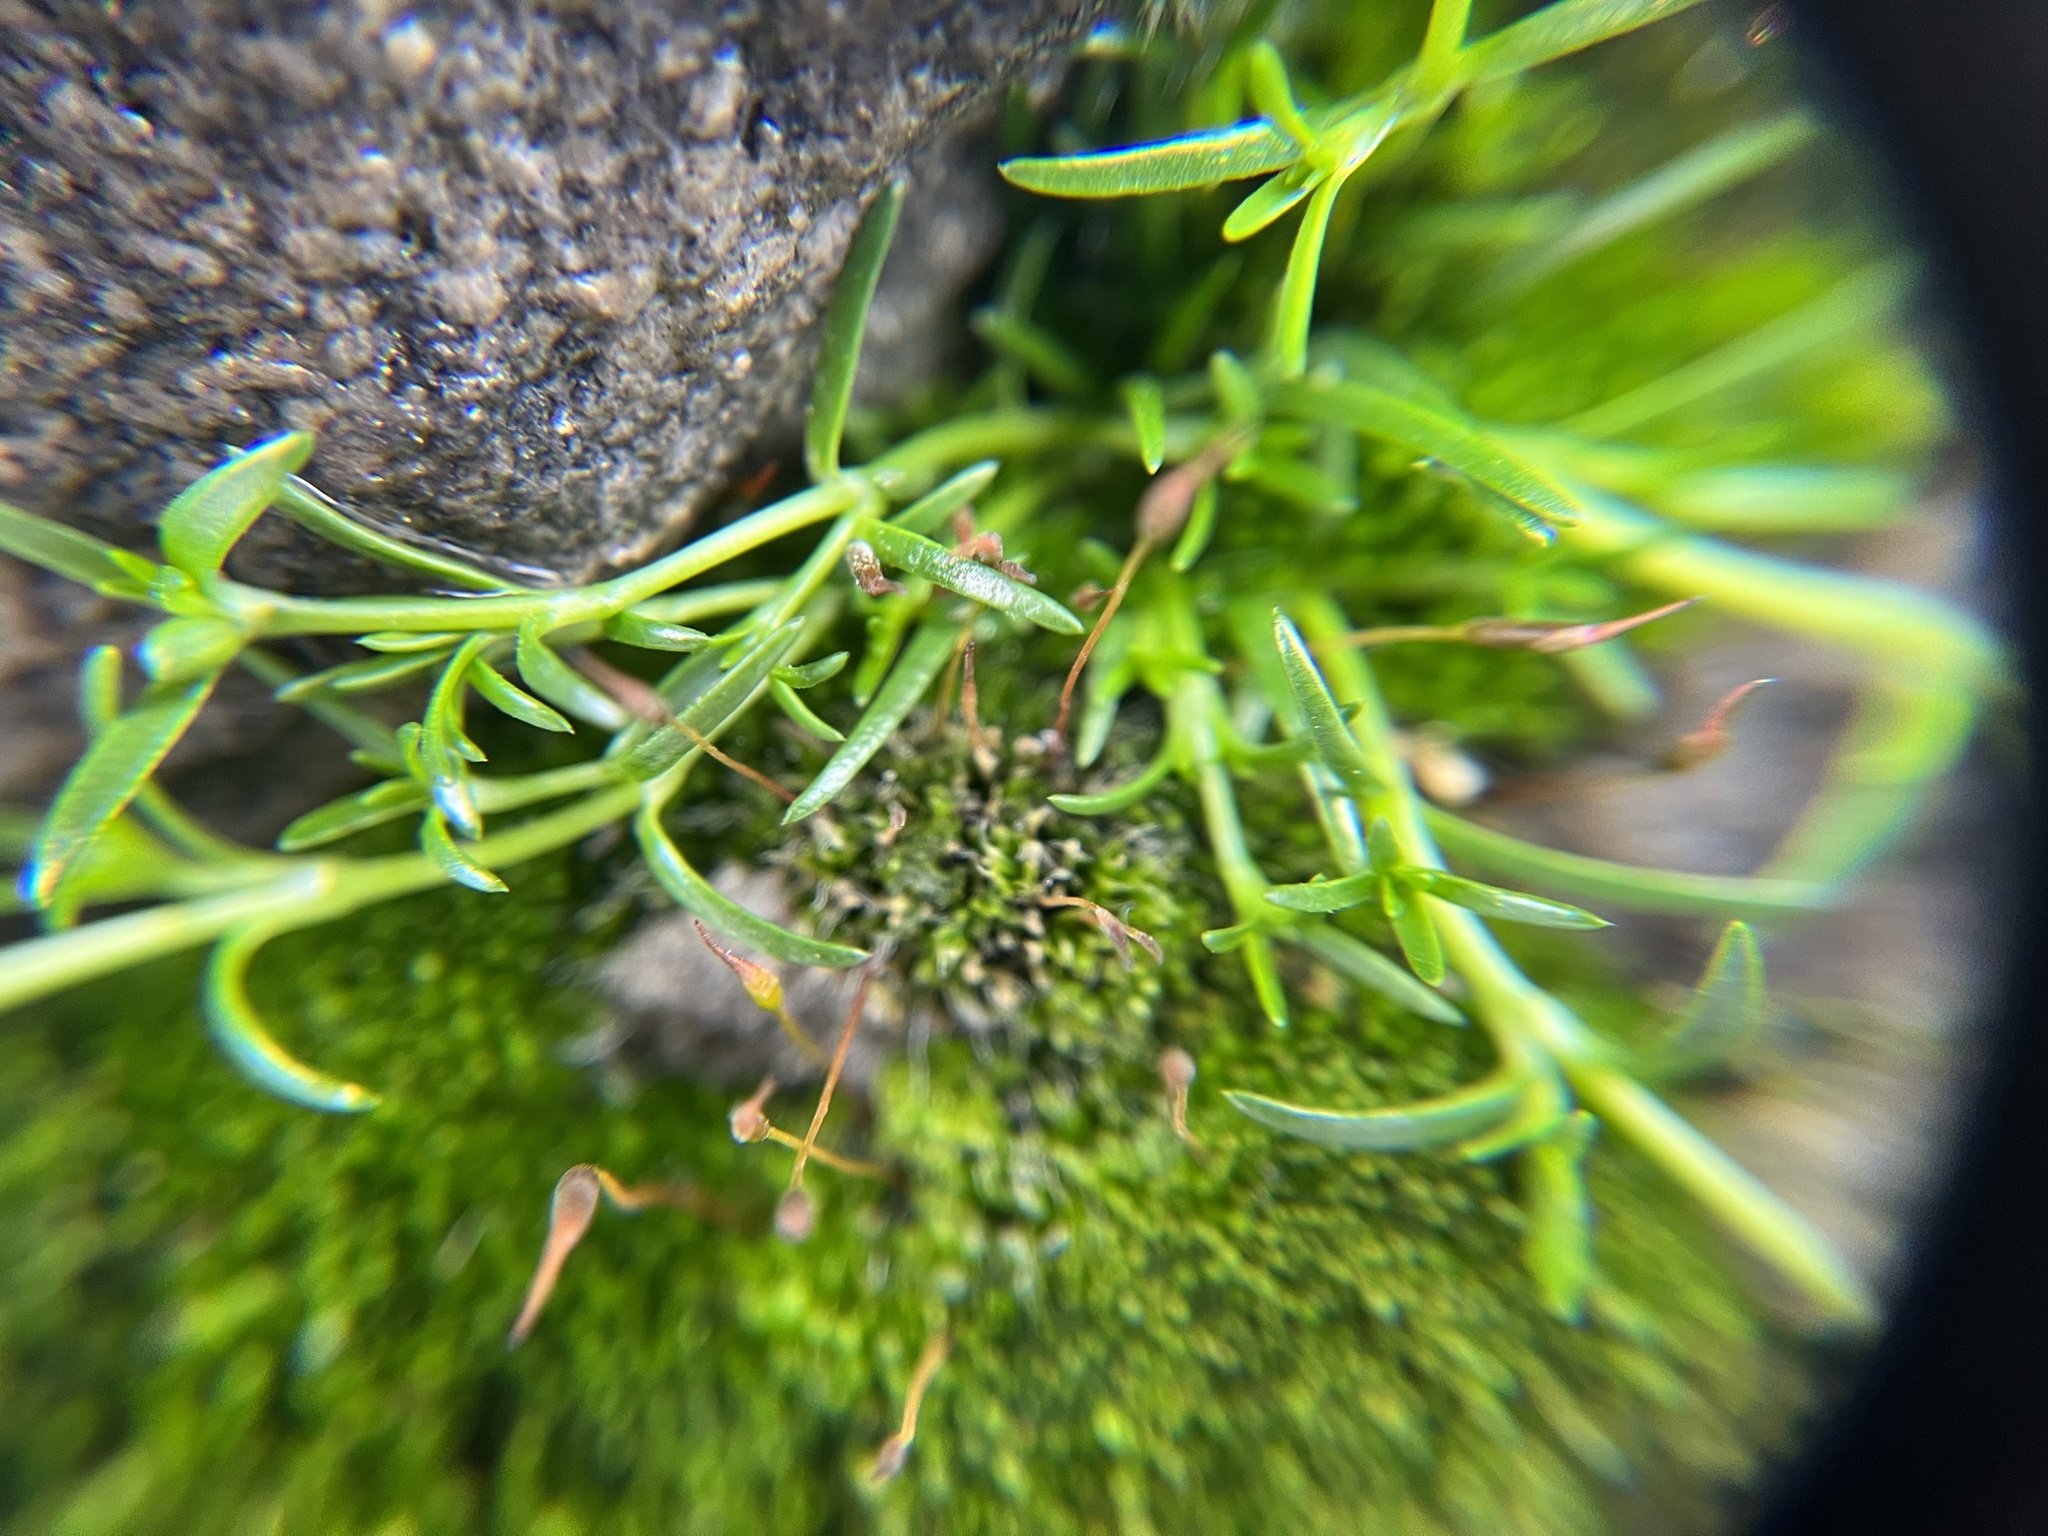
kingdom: Plantae
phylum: Tracheophyta
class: Magnoliopsida
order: Caryophyllales
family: Caryophyllaceae
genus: Sagina
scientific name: Sagina procumbens
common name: Procumbent pearlwort
